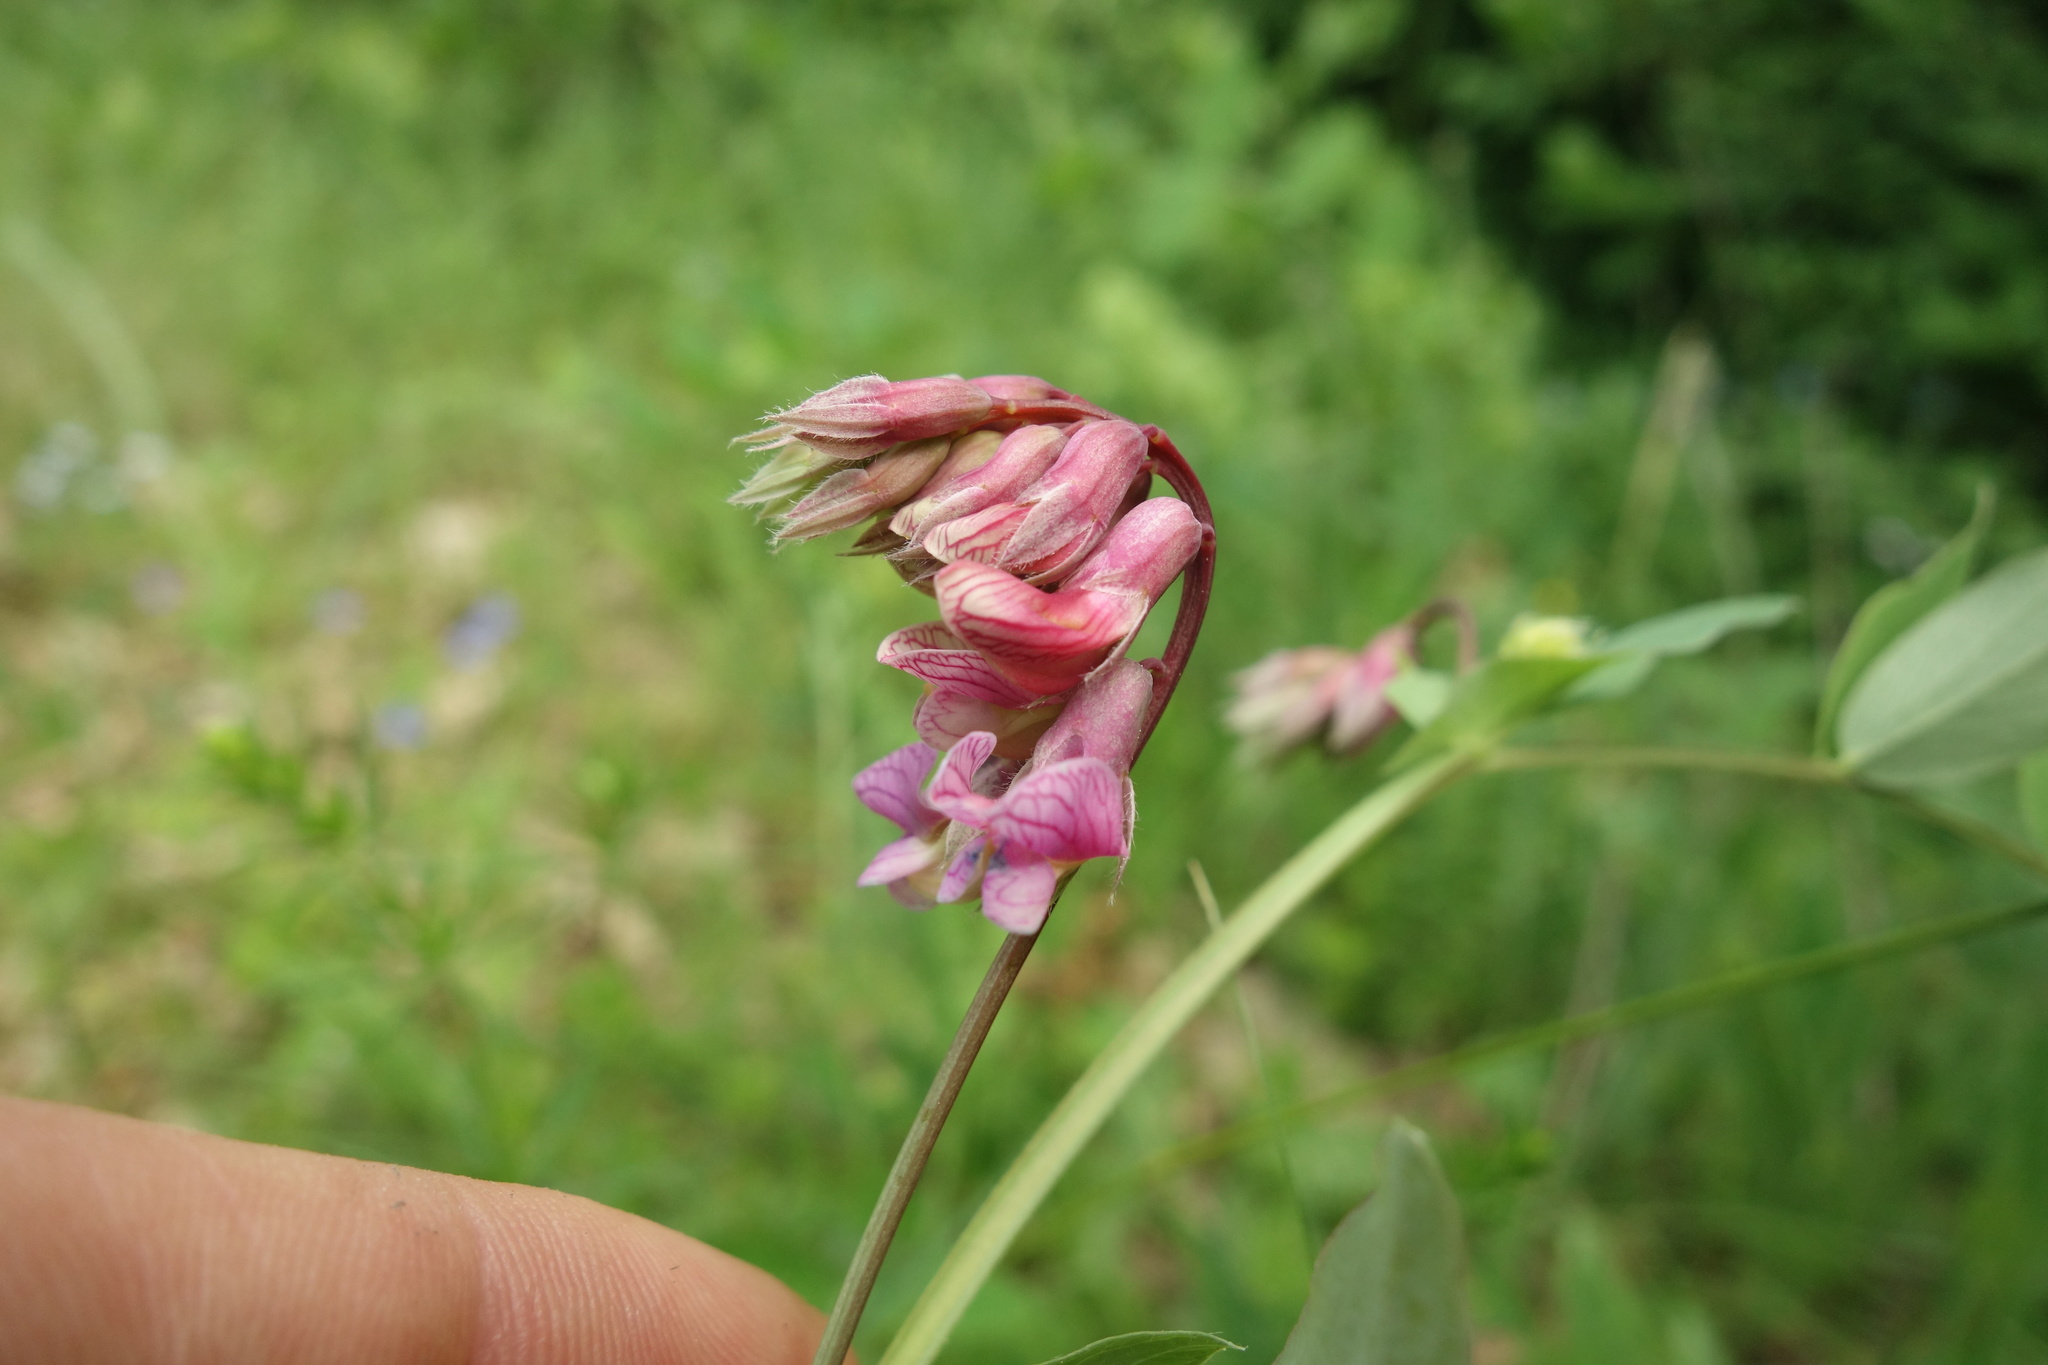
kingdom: Plantae
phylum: Tracheophyta
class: Magnoliopsida
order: Fabales
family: Fabaceae
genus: Lathyrus
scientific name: Lathyrus pisiformis
